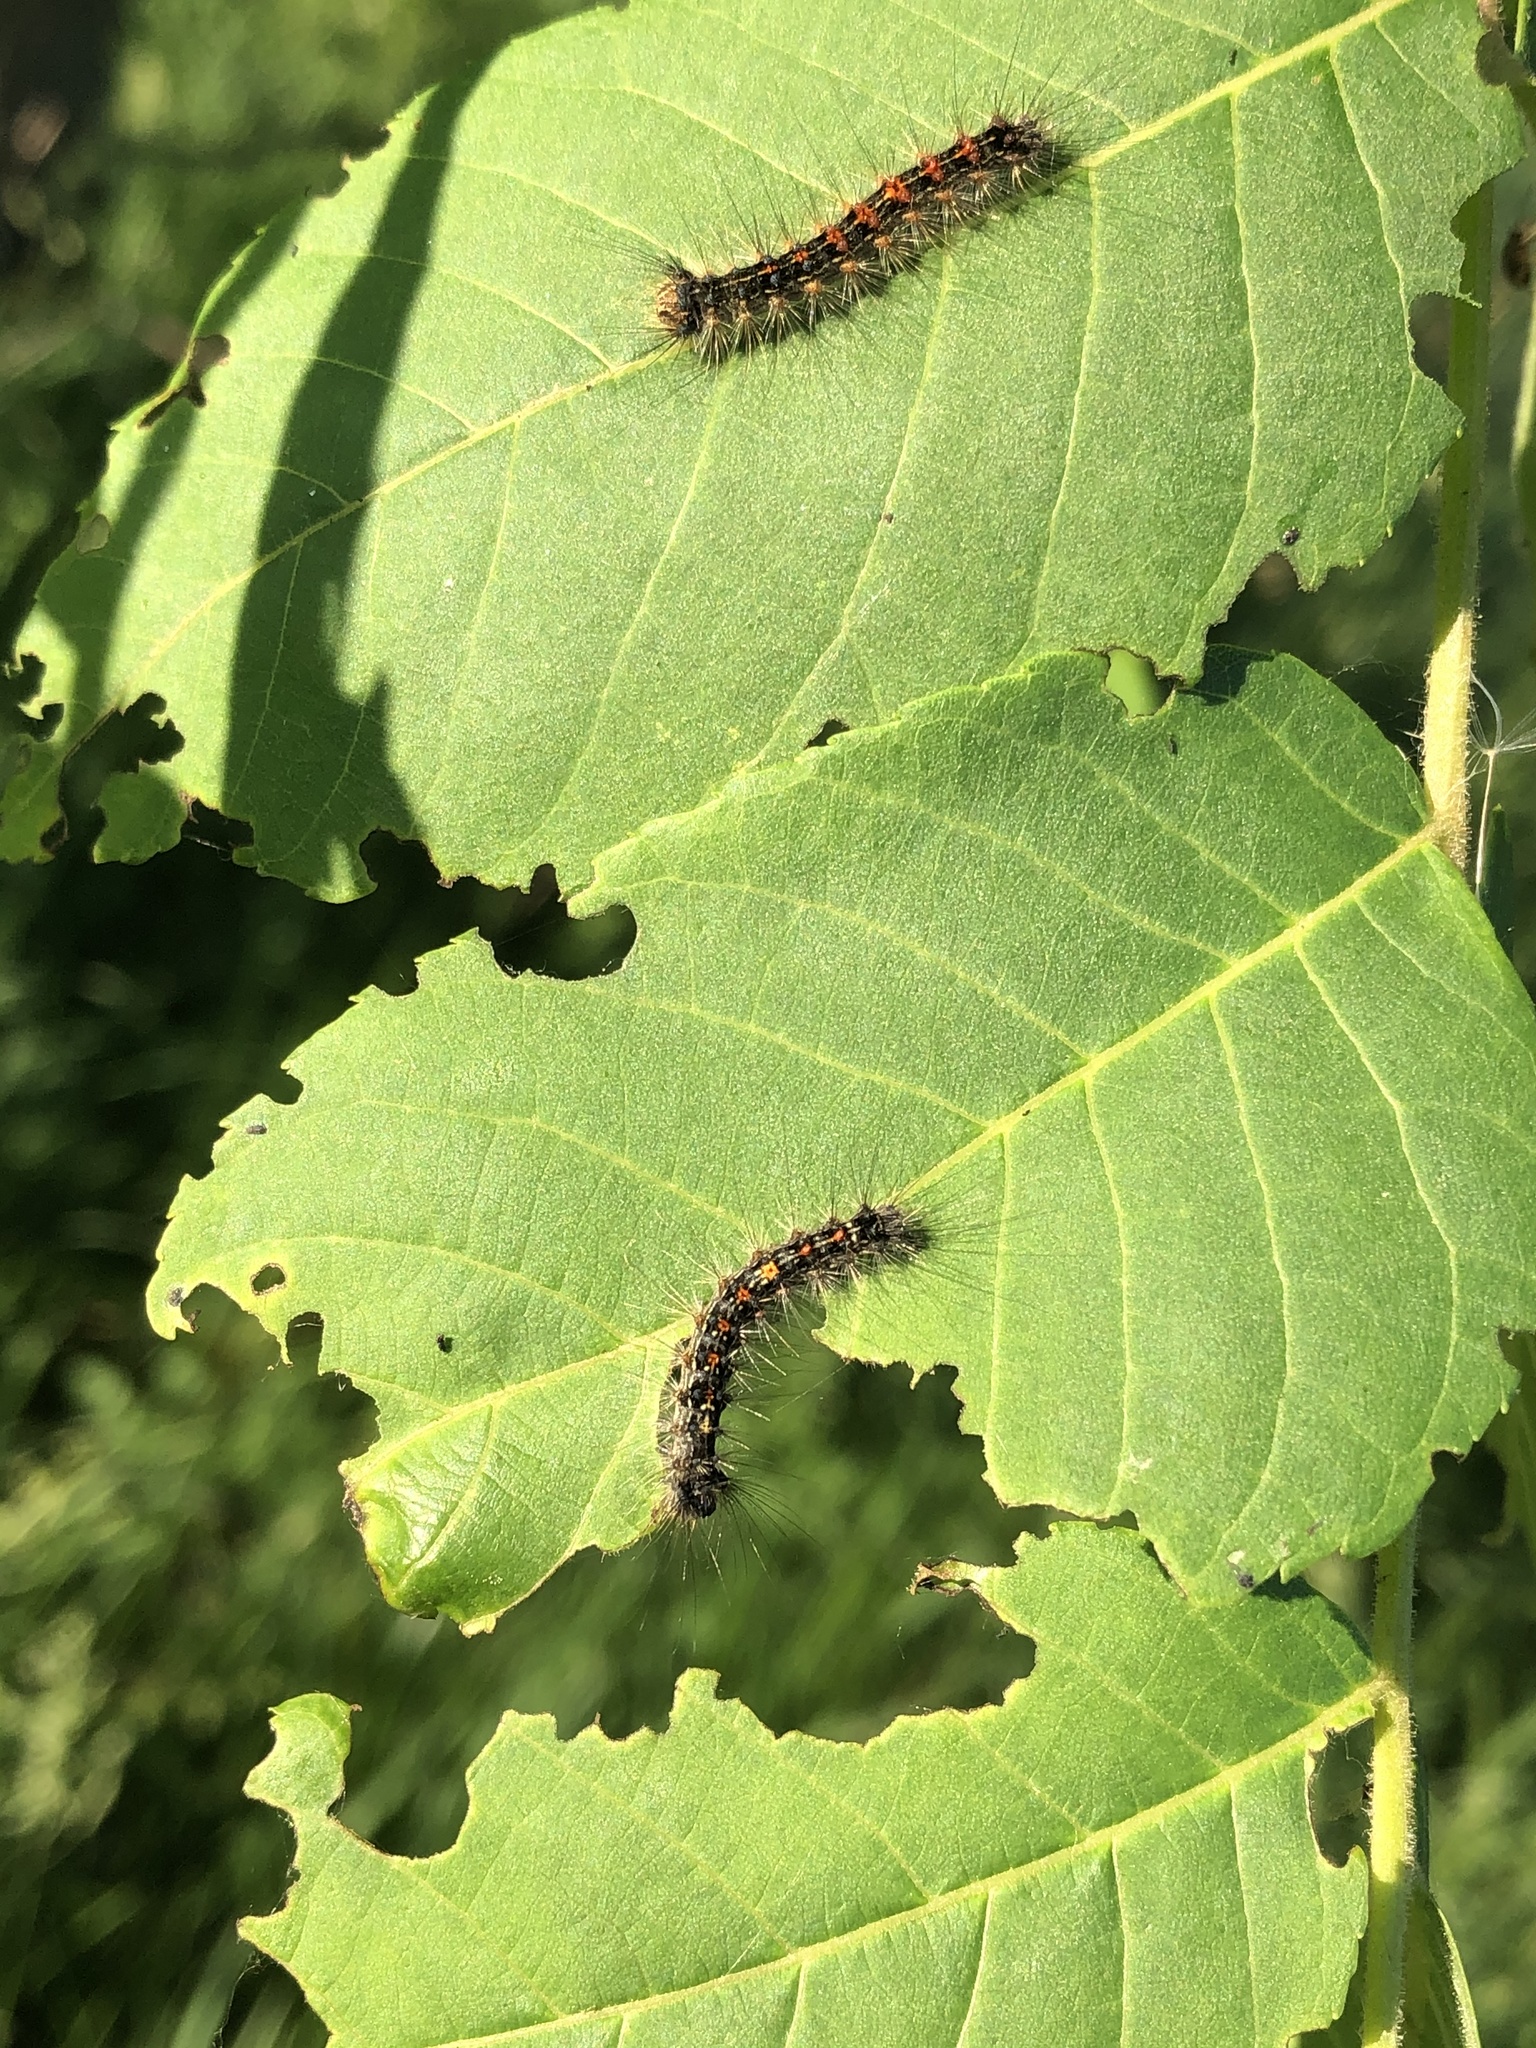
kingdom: Animalia
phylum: Arthropoda
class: Insecta
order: Lepidoptera
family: Erebidae
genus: Lymantria
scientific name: Lymantria dispar
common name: Gypsy moth
